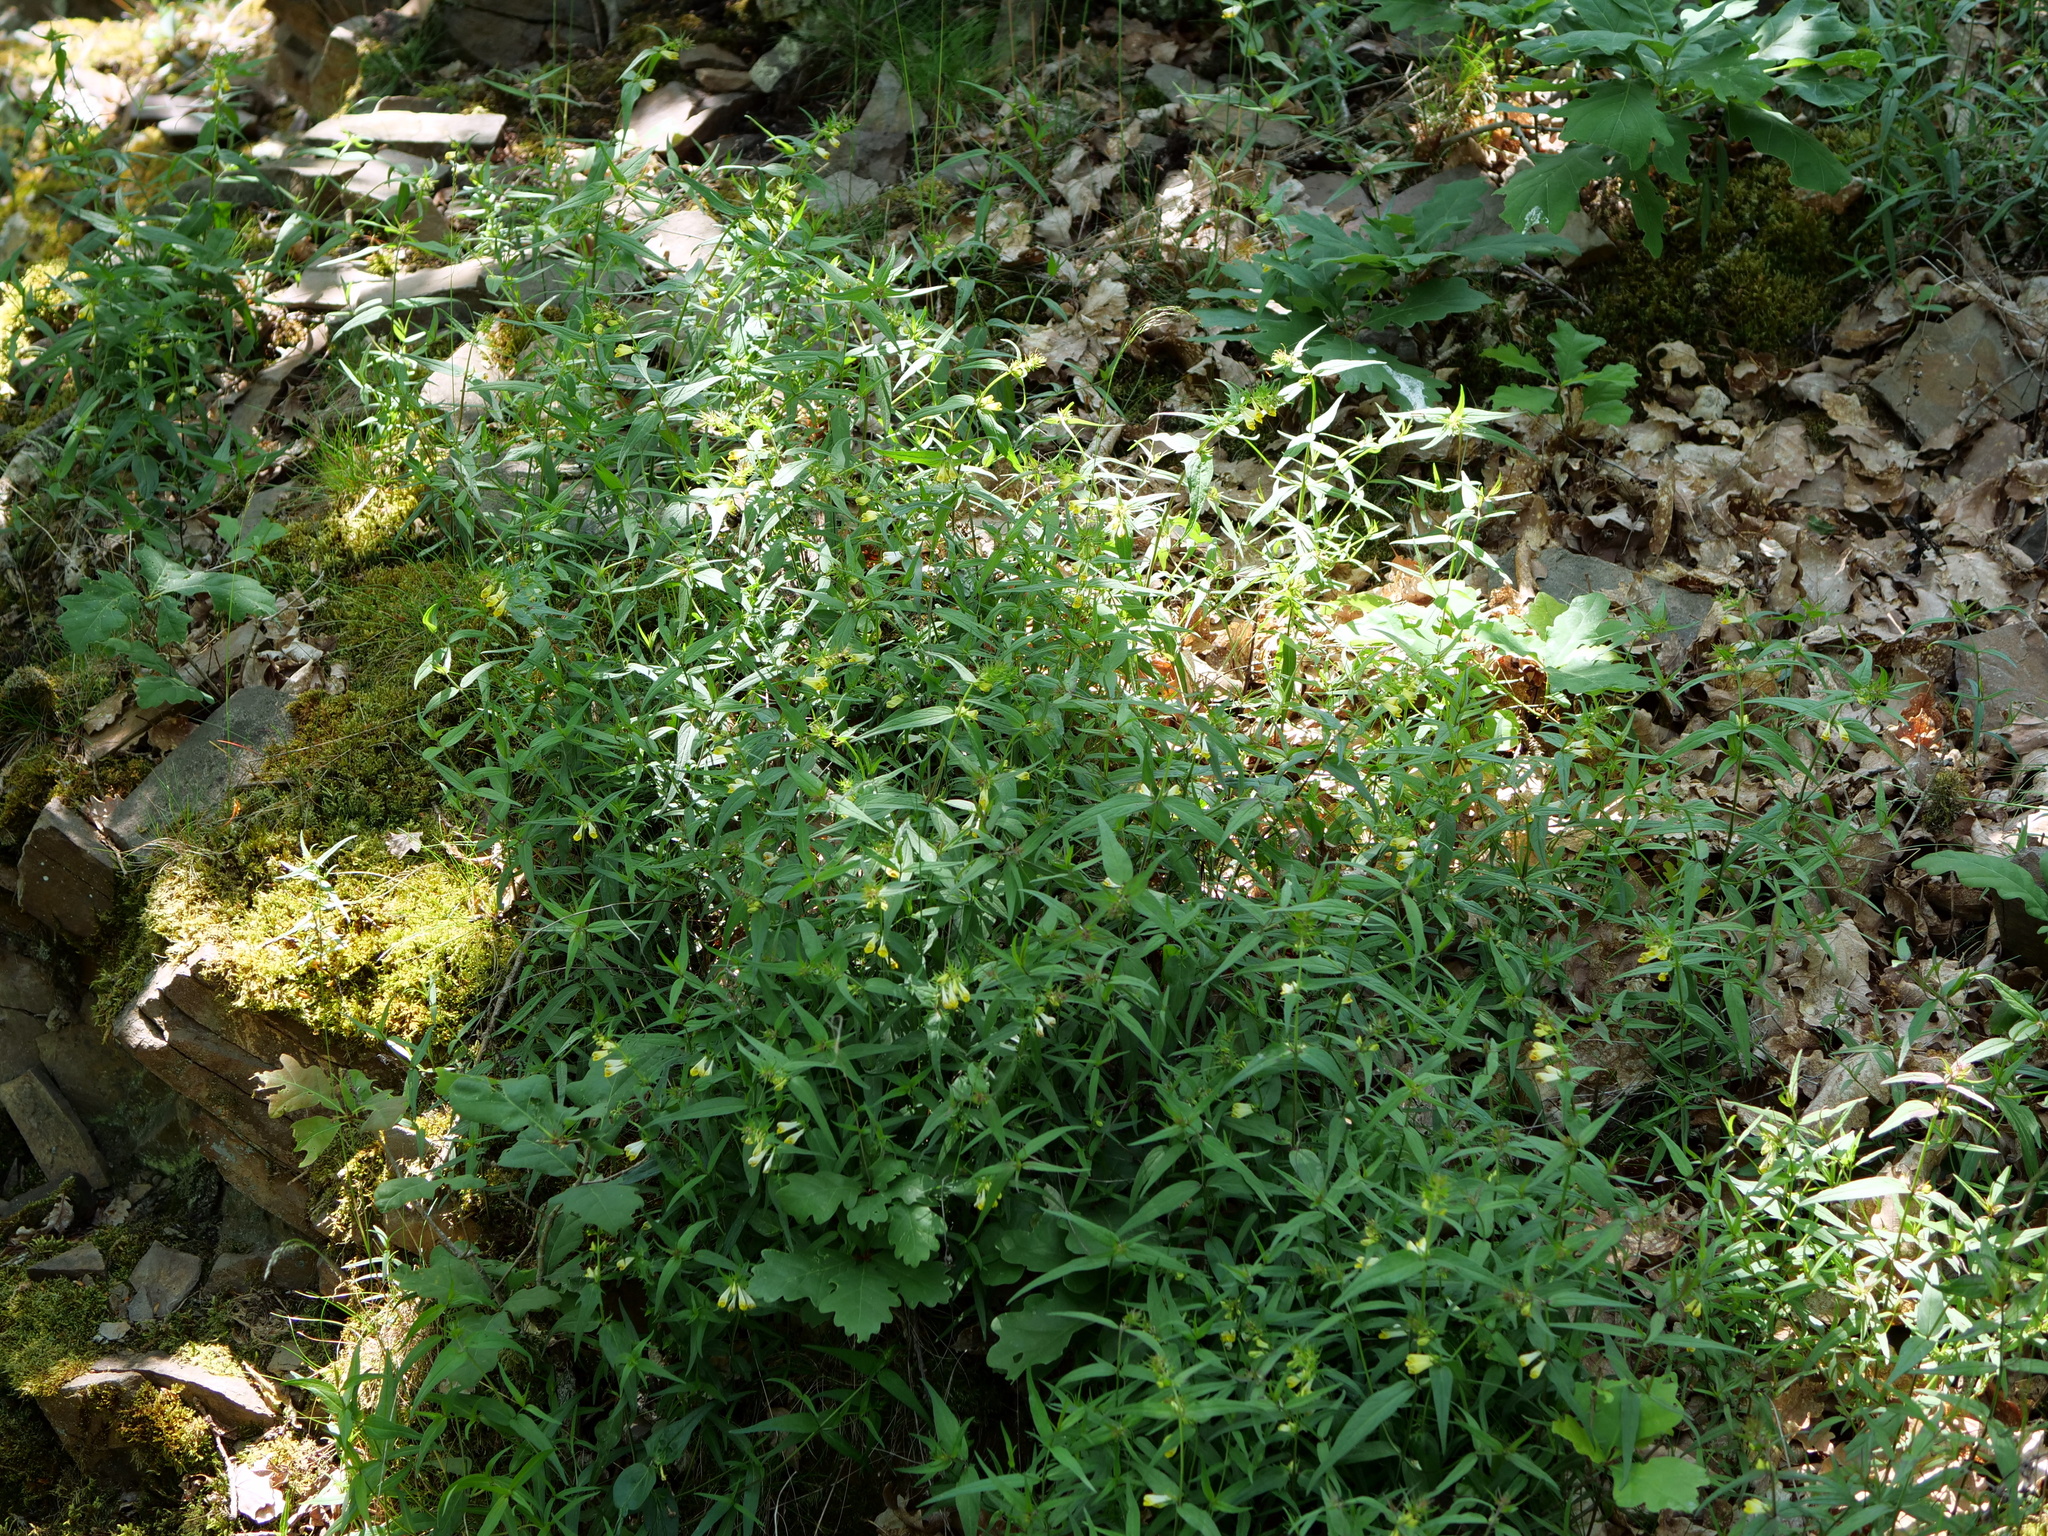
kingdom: Plantae
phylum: Tracheophyta
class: Magnoliopsida
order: Lamiales
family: Orobanchaceae
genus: Melampyrum
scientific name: Melampyrum pratense
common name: Common cow-wheat
